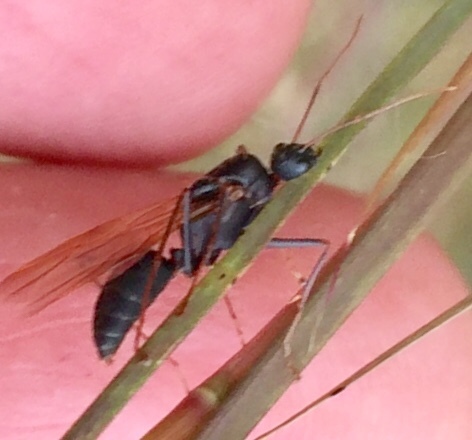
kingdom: Animalia
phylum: Arthropoda
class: Insecta
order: Hymenoptera
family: Formicidae
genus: Camponotus
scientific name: Camponotus socius
